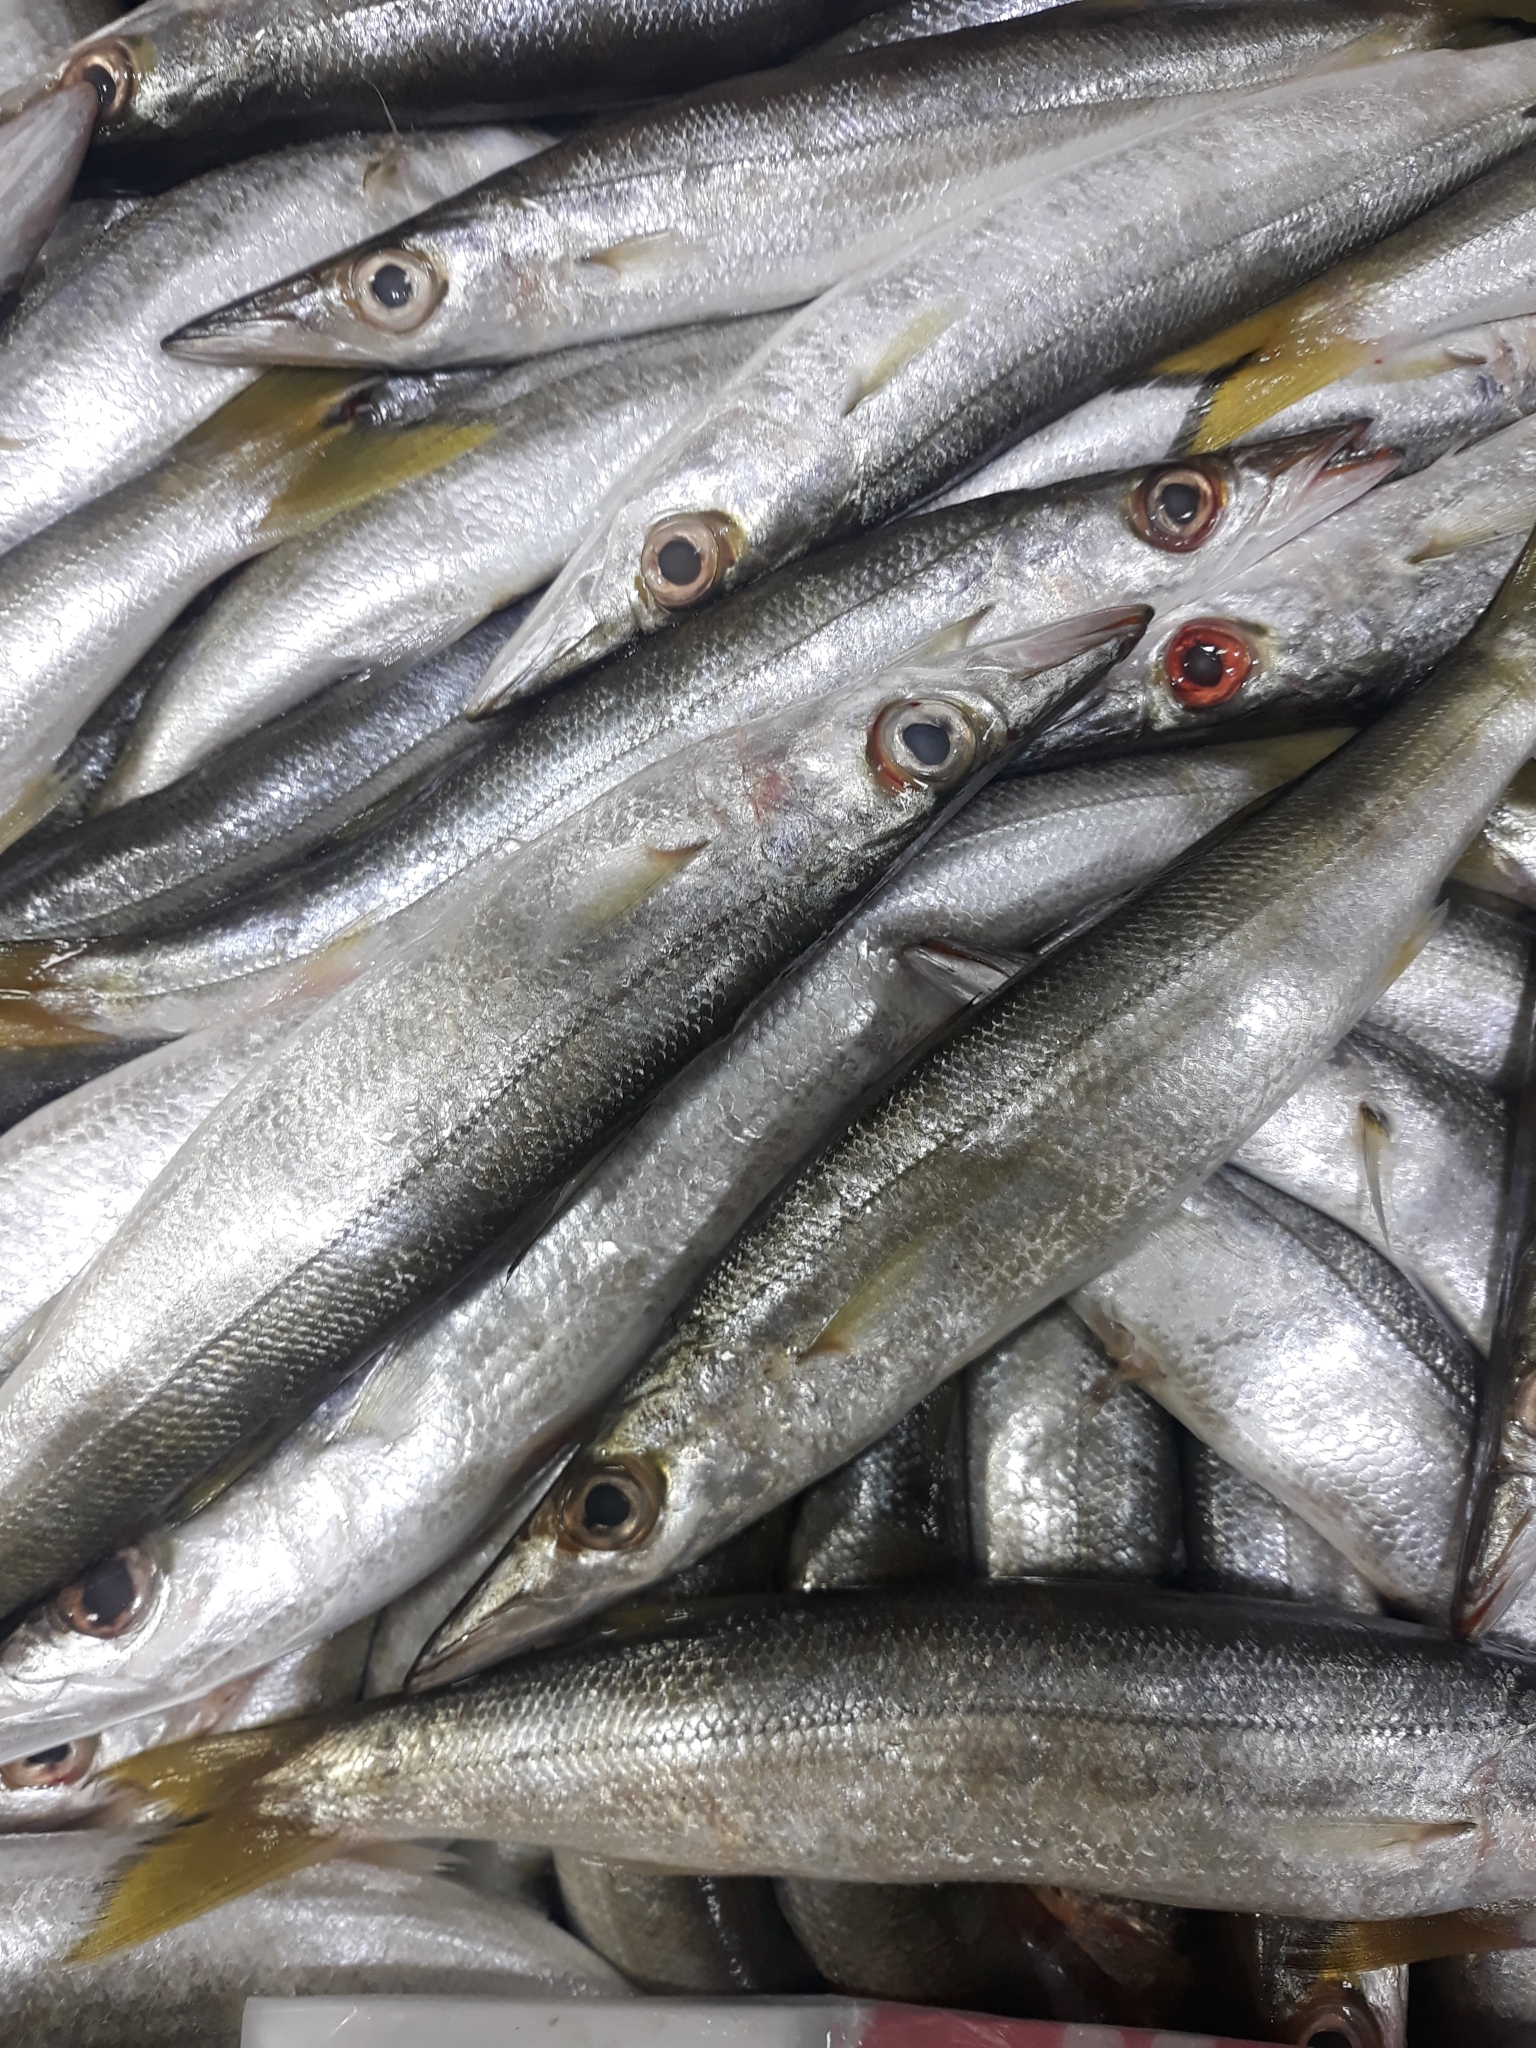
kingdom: Animalia
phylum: Chordata
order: Perciformes
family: Sphyraenidae
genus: Sphyraena
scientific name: Sphyraena sphyraena
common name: European barracuda
